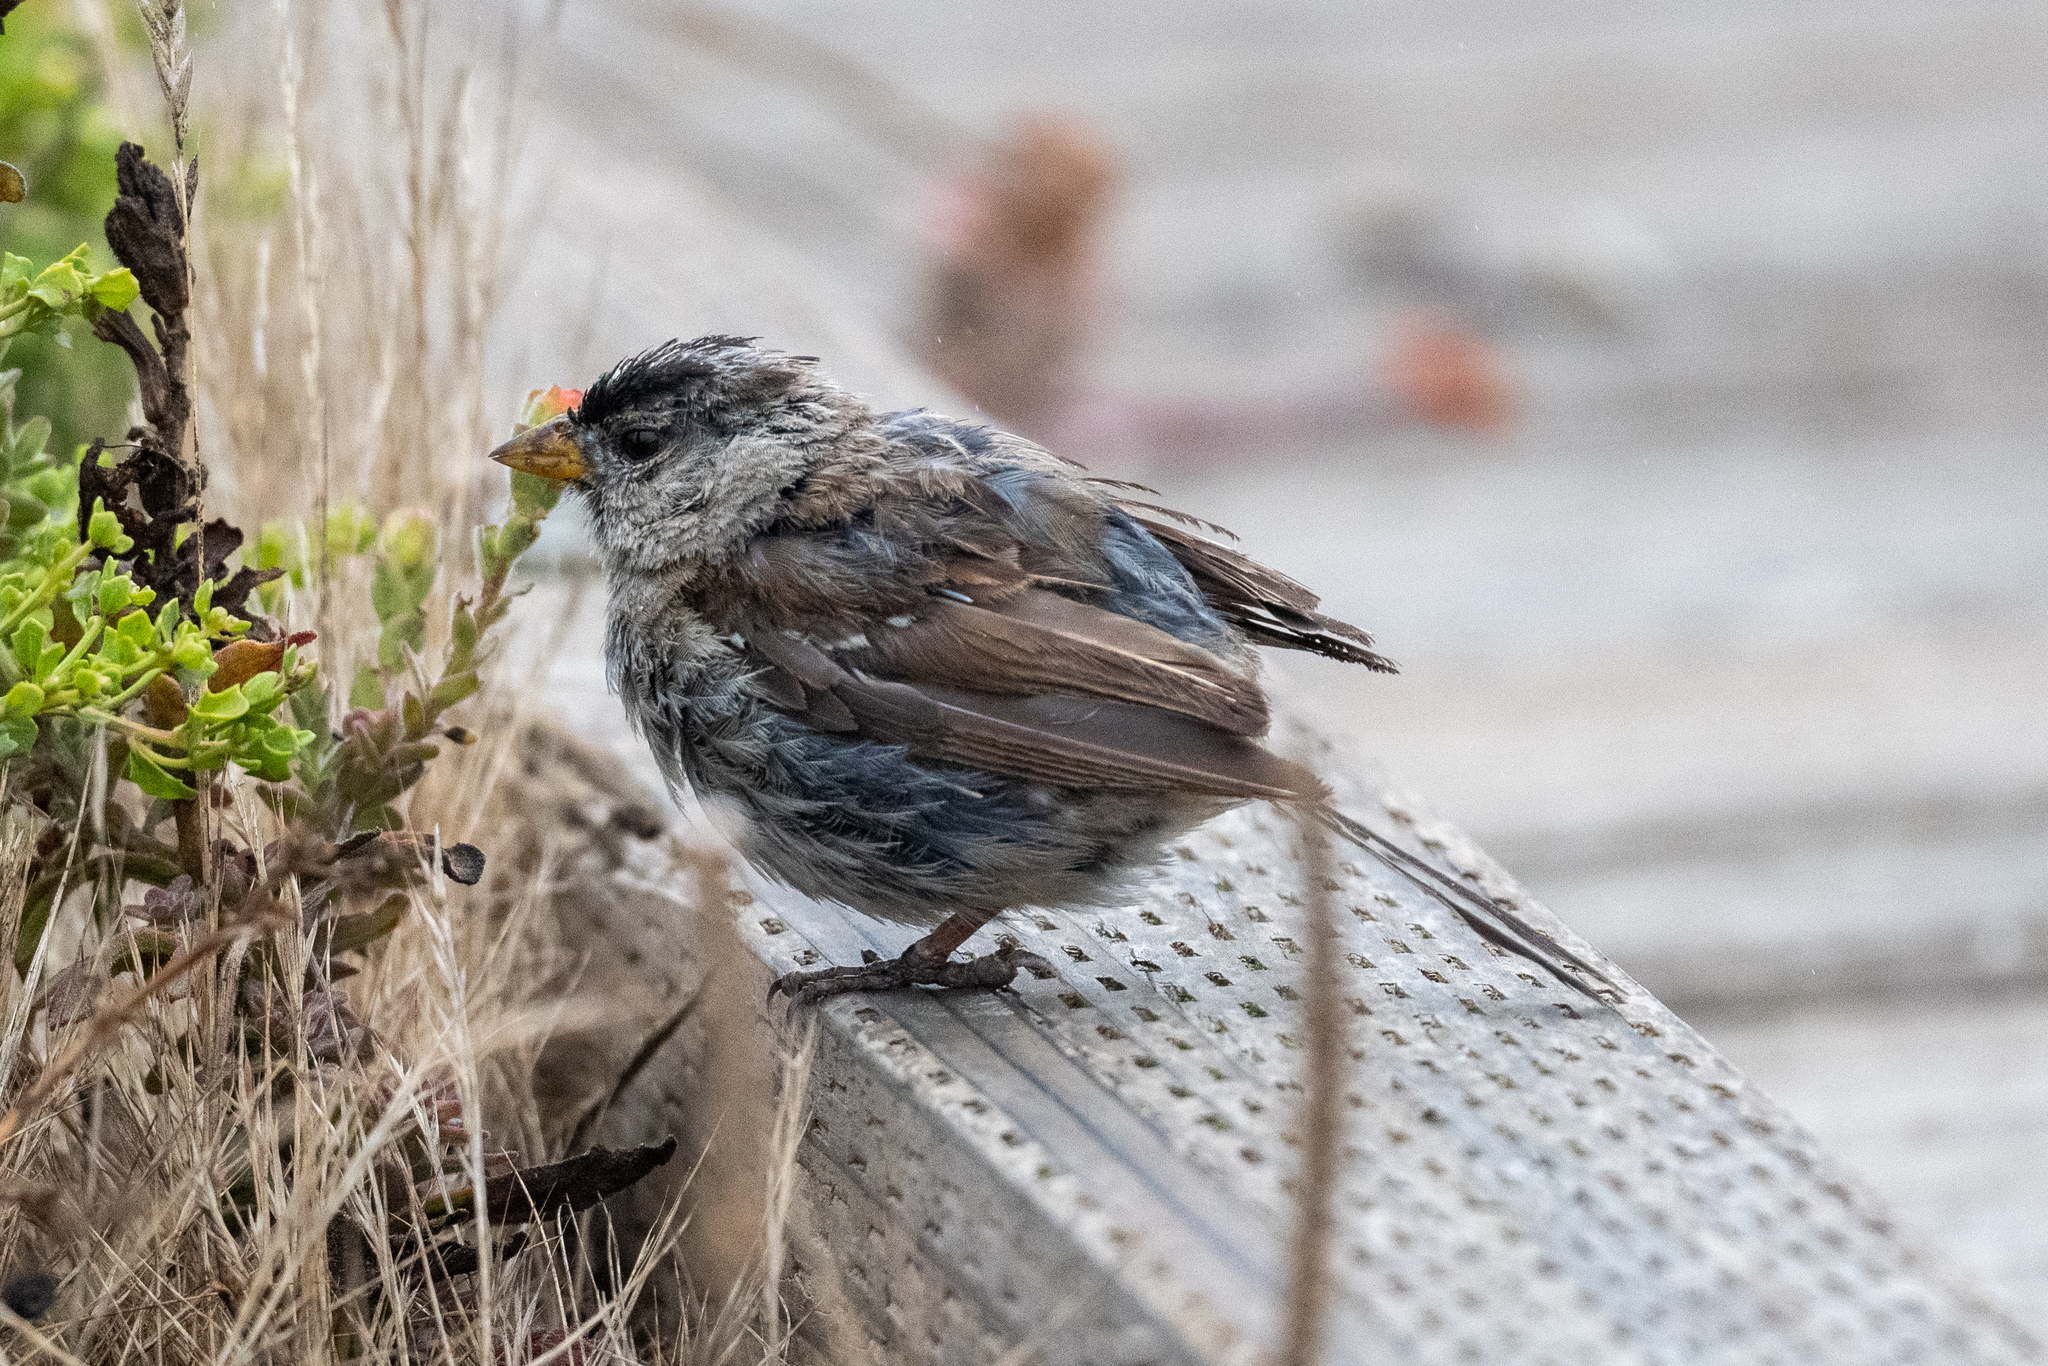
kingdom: Animalia
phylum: Chordata
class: Aves
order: Passeriformes
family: Passerellidae
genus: Zonotrichia
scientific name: Zonotrichia leucophrys
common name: White-crowned sparrow
